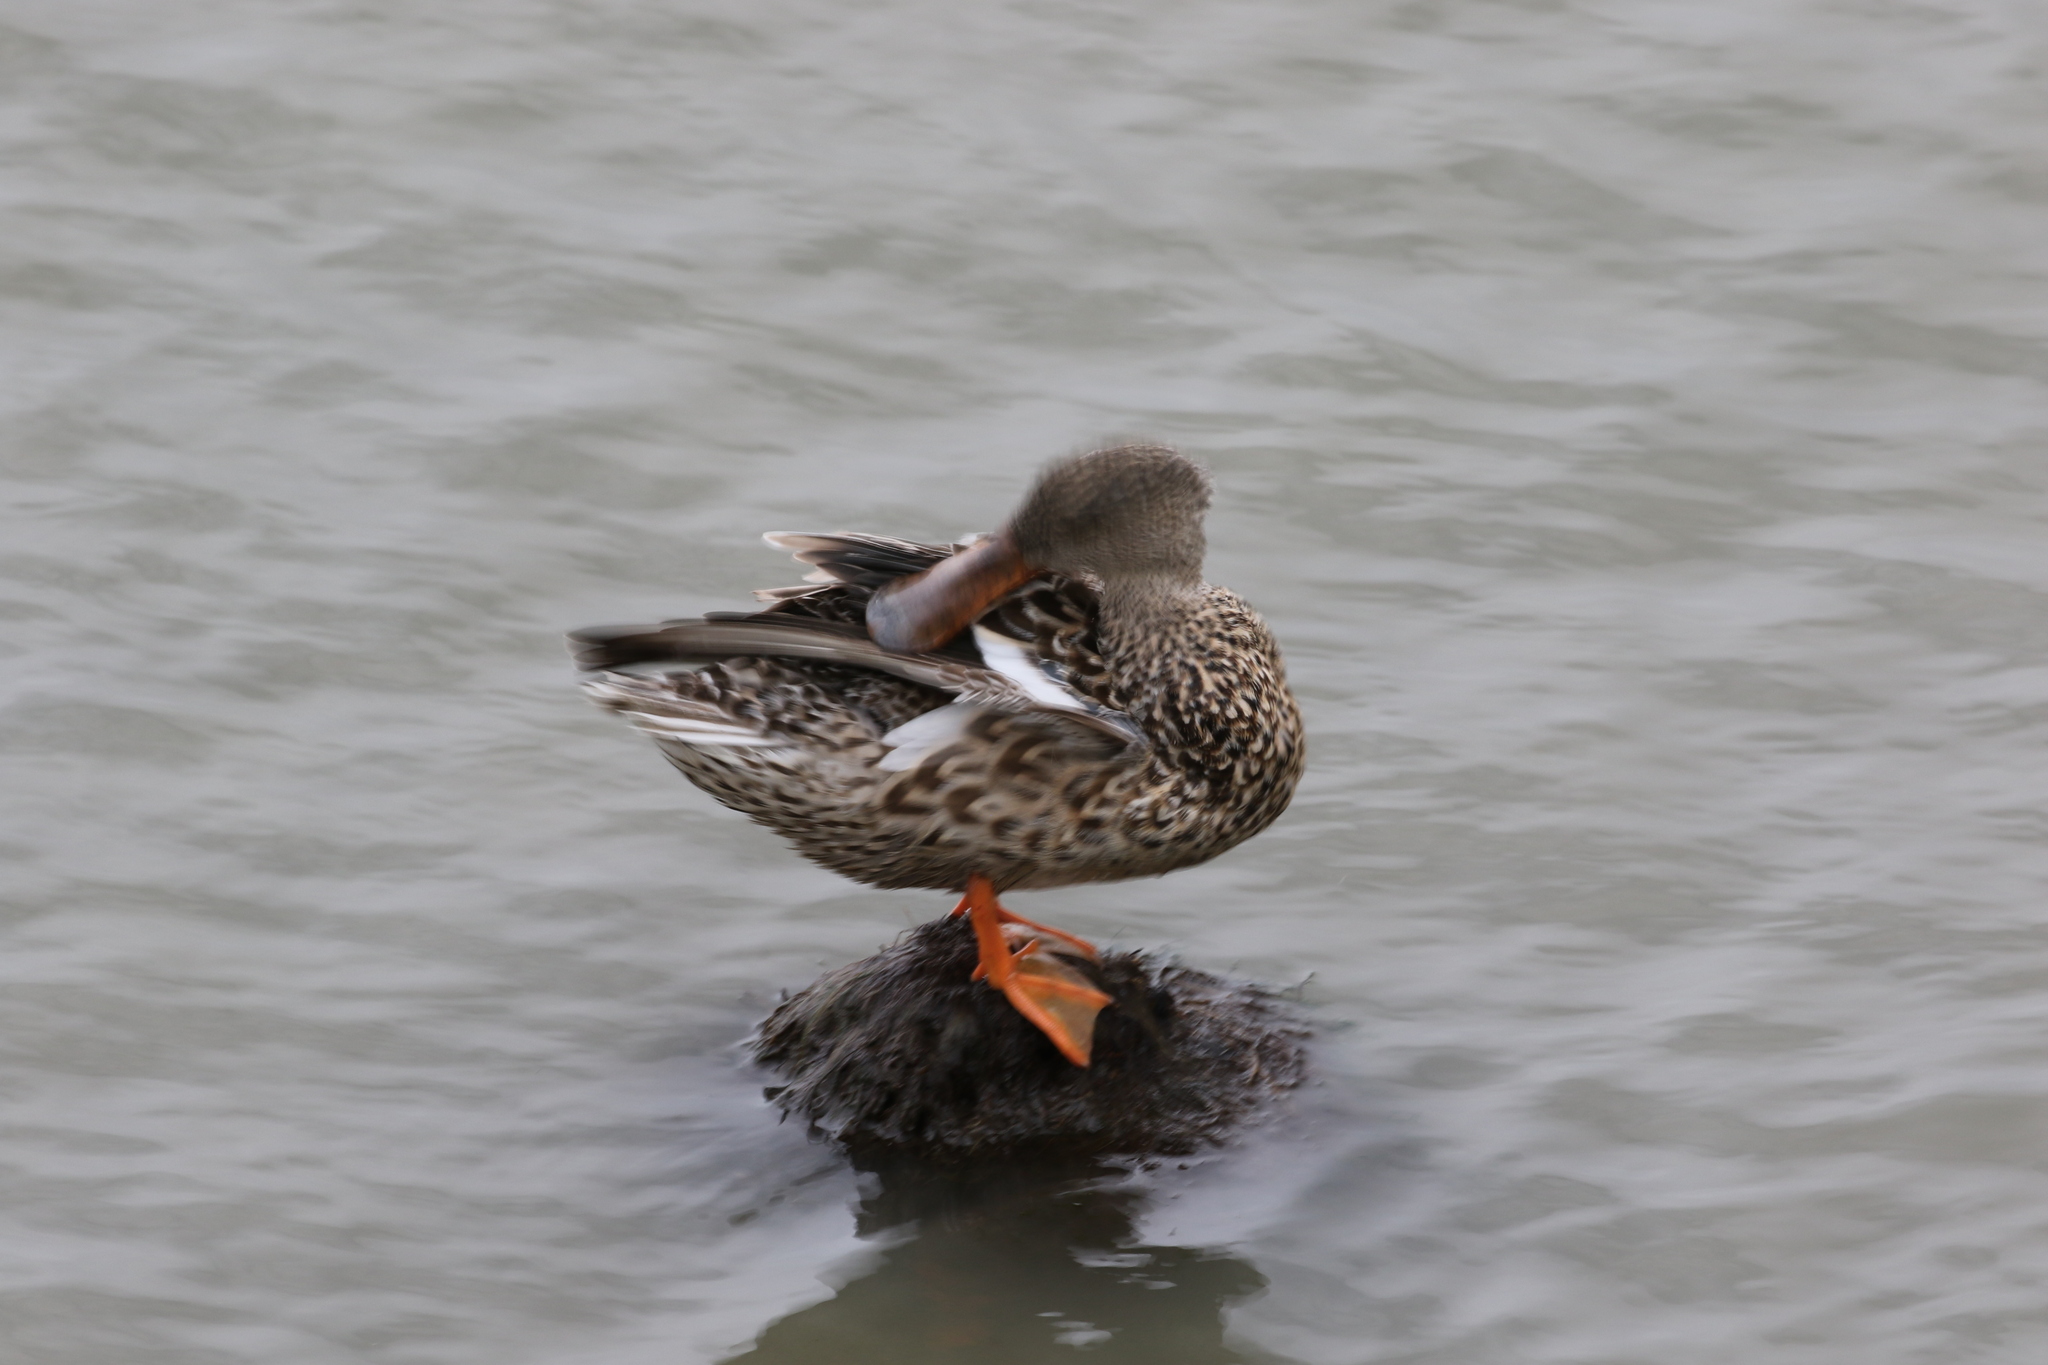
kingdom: Animalia
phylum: Chordata
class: Aves
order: Anseriformes
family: Anatidae
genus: Spatula
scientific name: Spatula clypeata
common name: Northern shoveler
